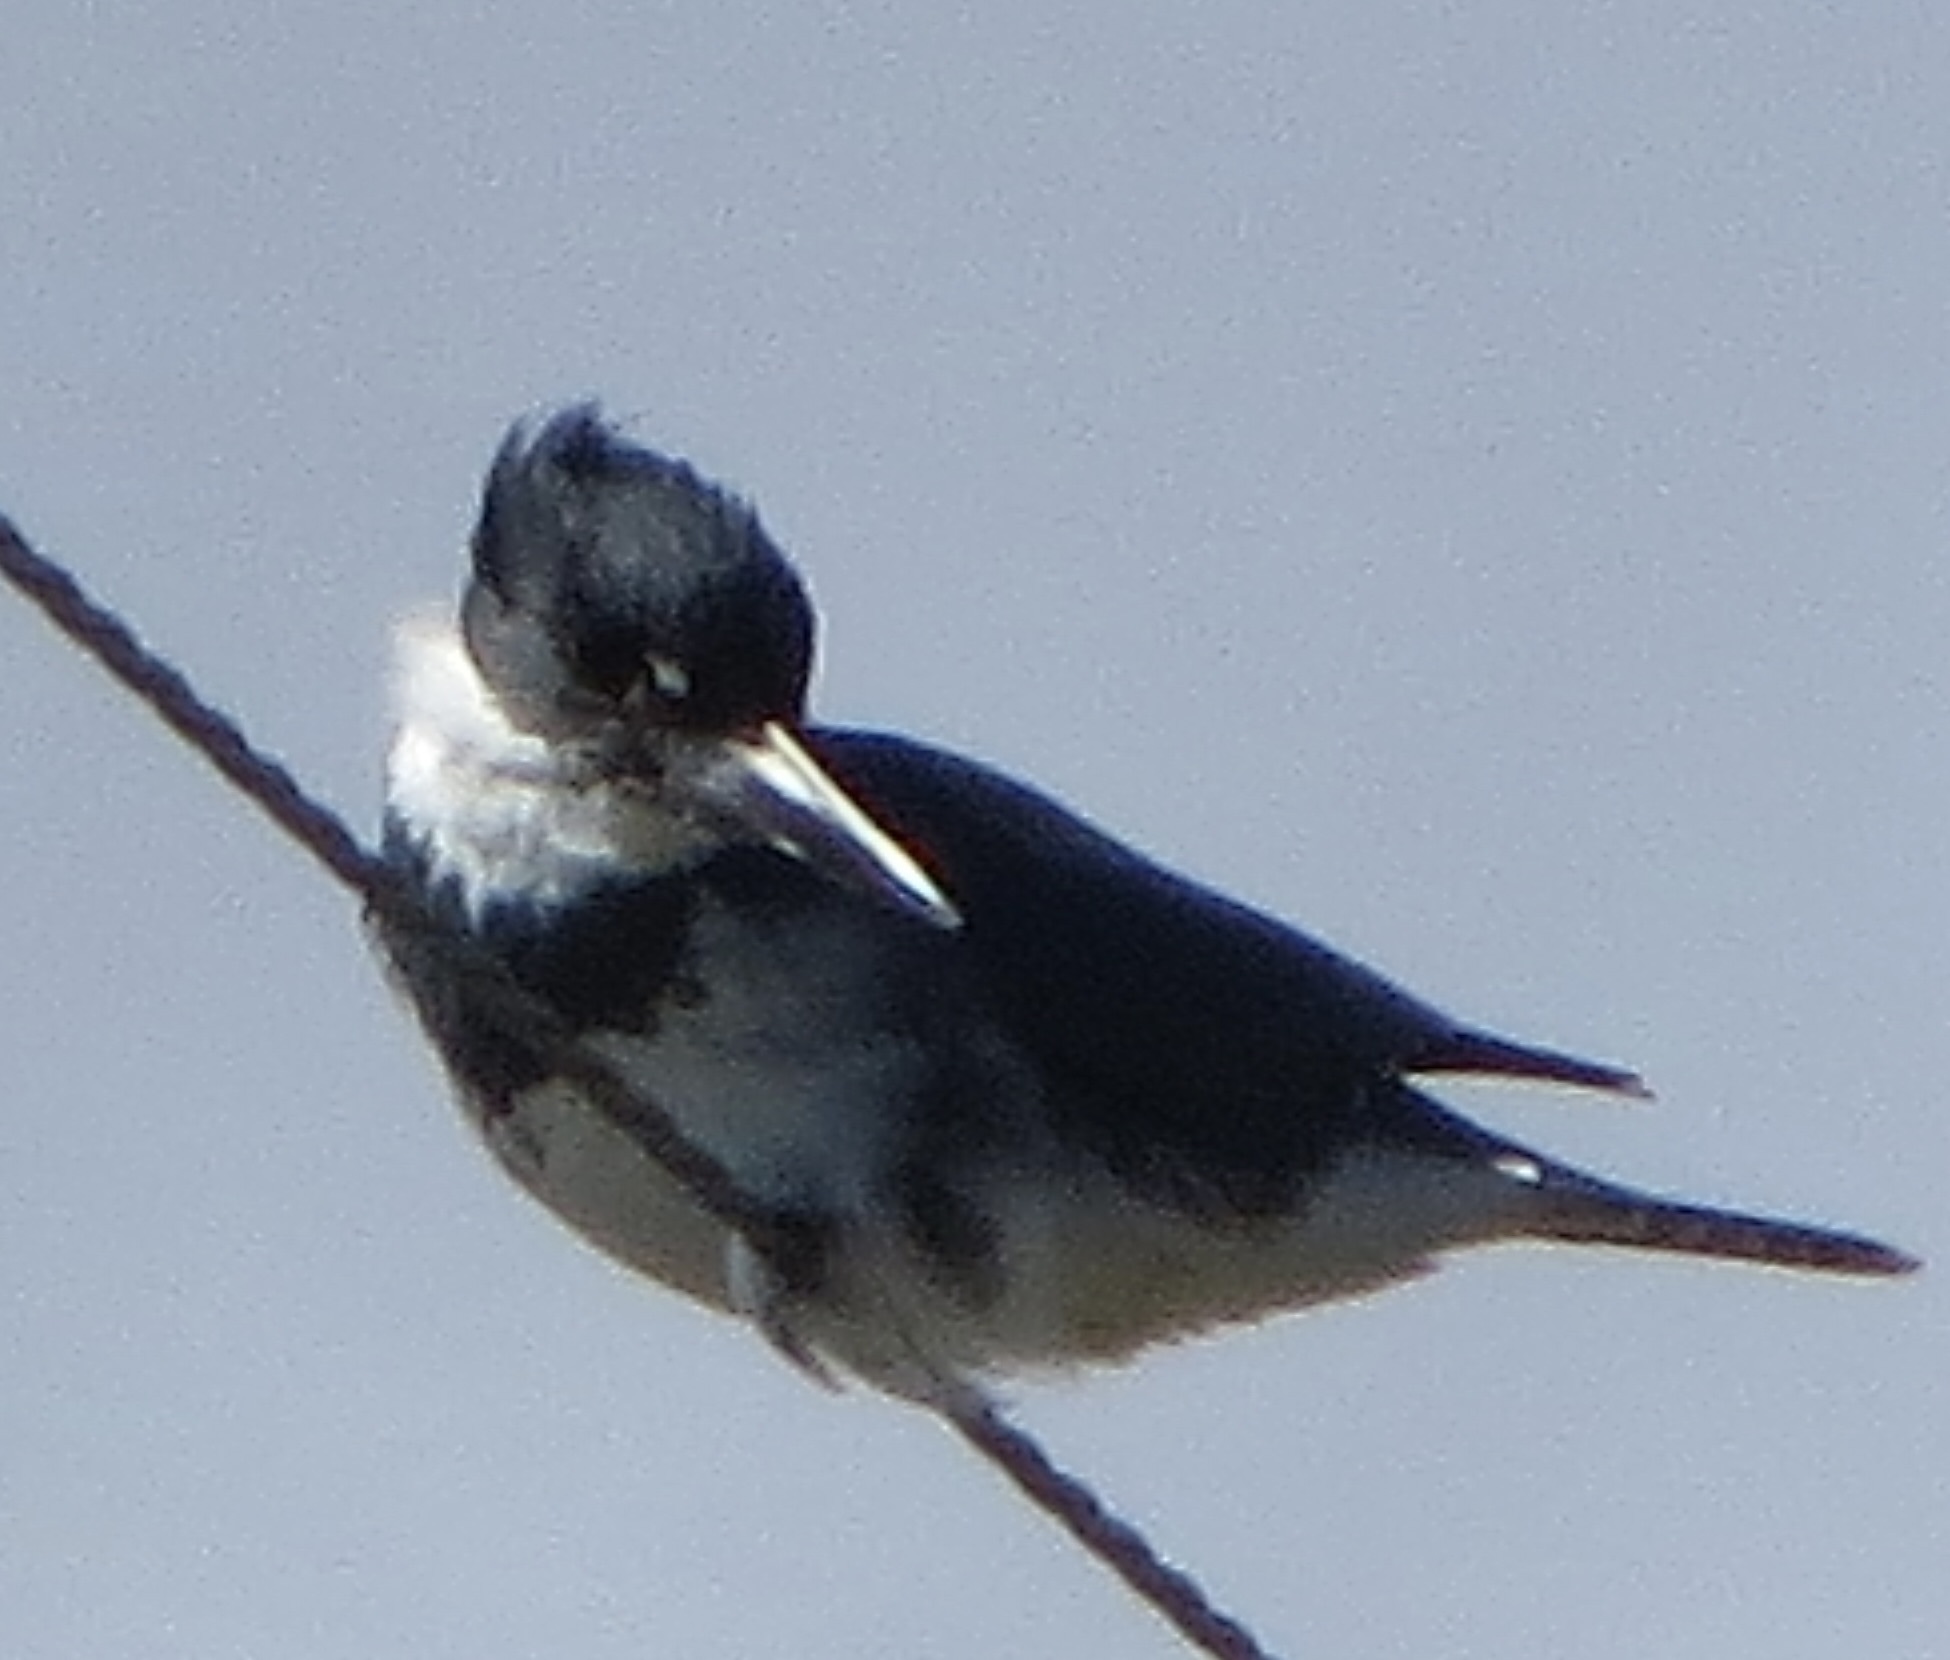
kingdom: Animalia
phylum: Chordata
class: Aves
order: Coraciiformes
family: Alcedinidae
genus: Megaceryle
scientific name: Megaceryle alcyon
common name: Belted kingfisher
